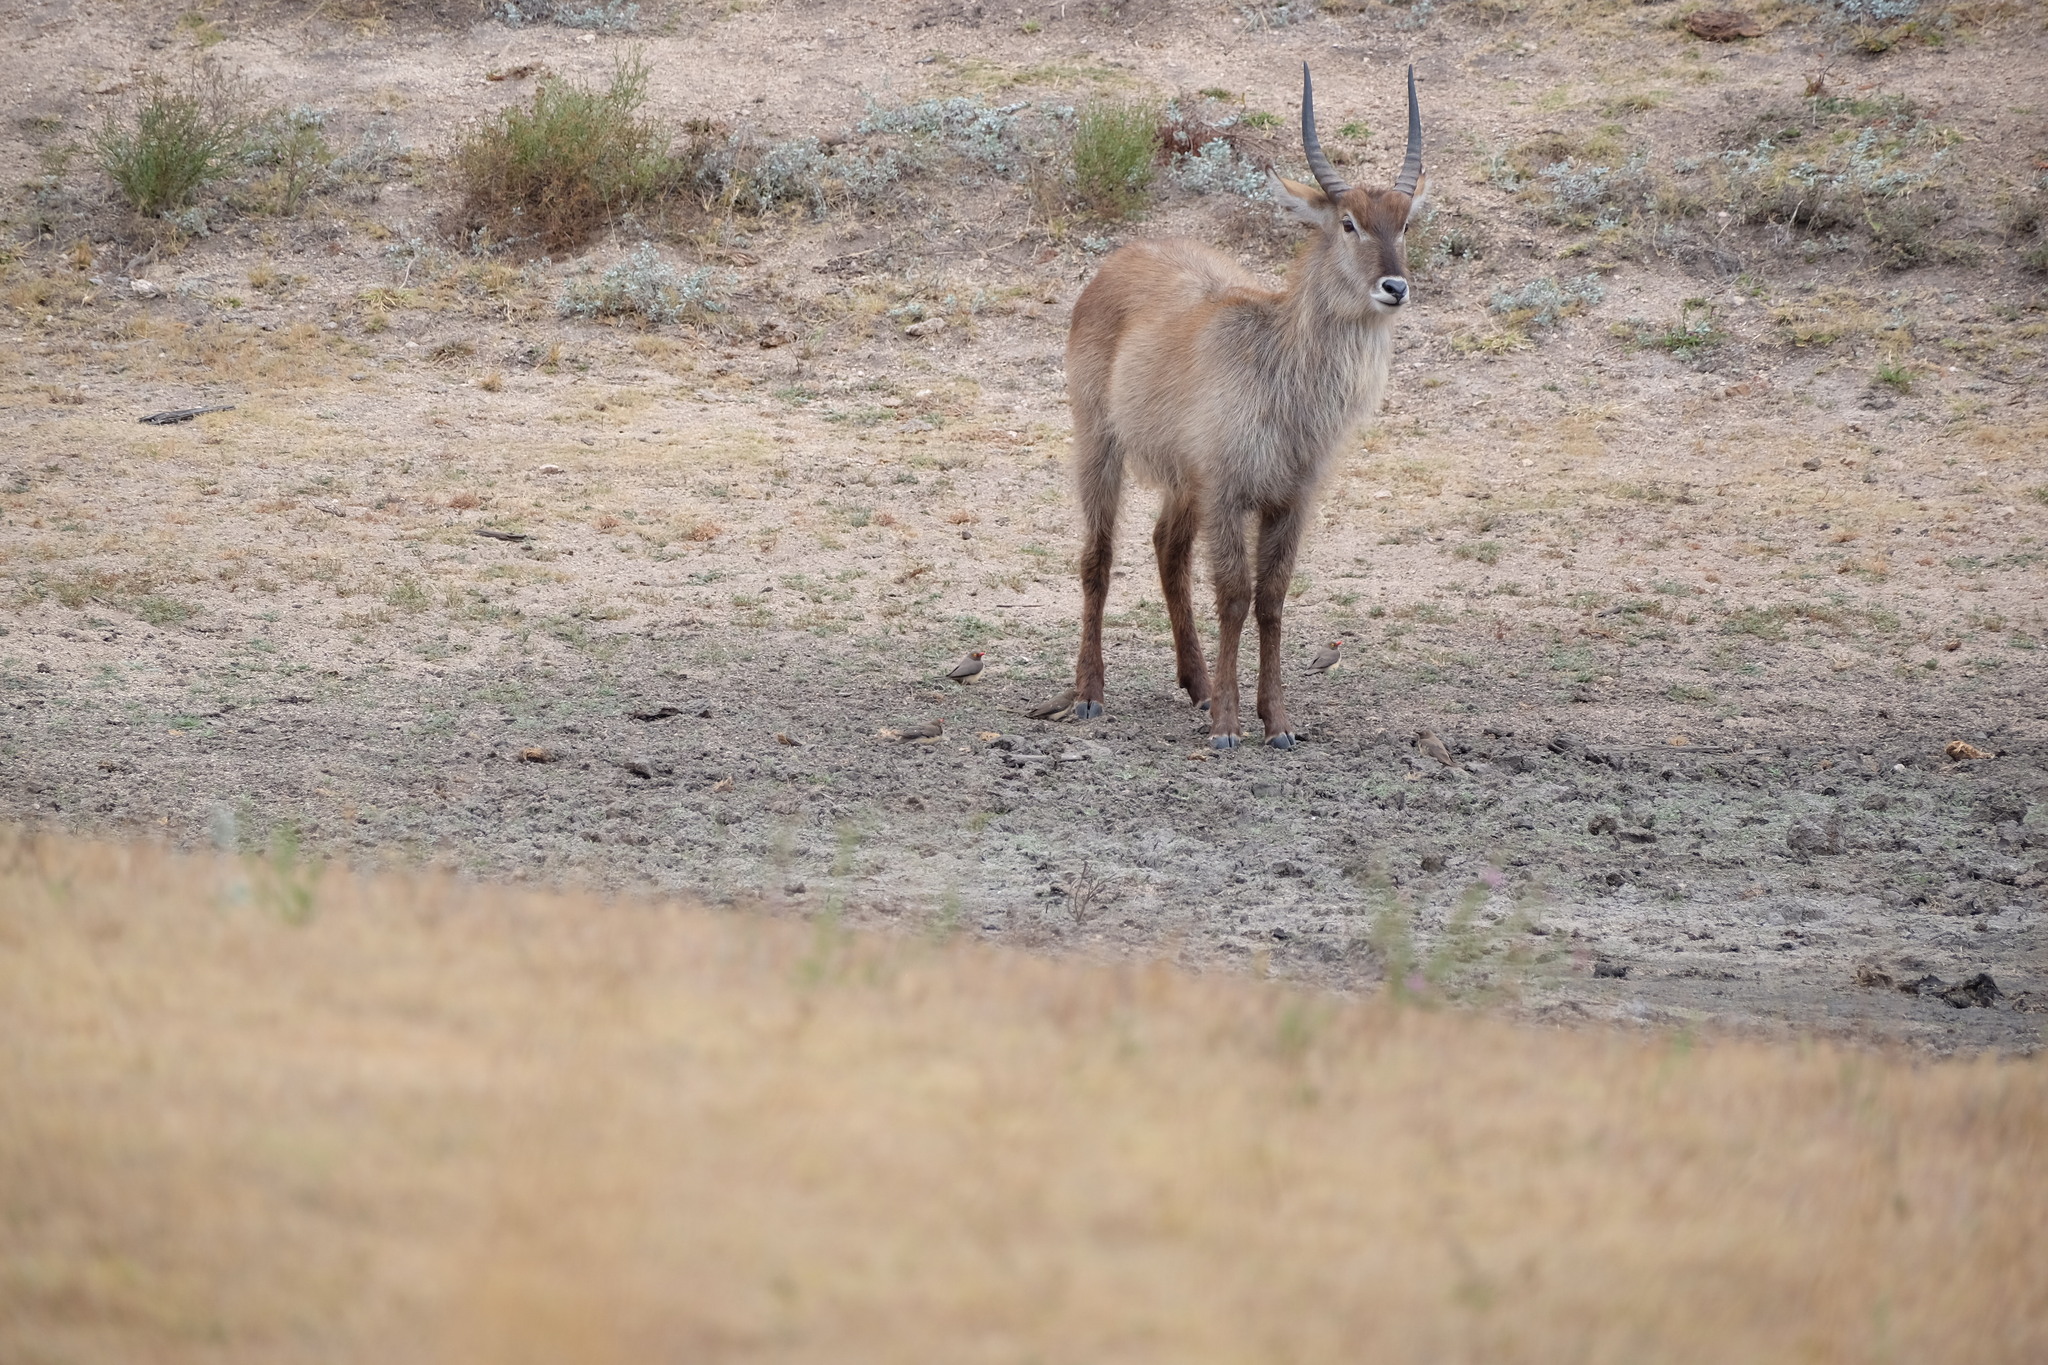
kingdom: Animalia
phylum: Chordata
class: Mammalia
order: Artiodactyla
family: Bovidae
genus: Kobus
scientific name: Kobus ellipsiprymnus
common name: Waterbuck
